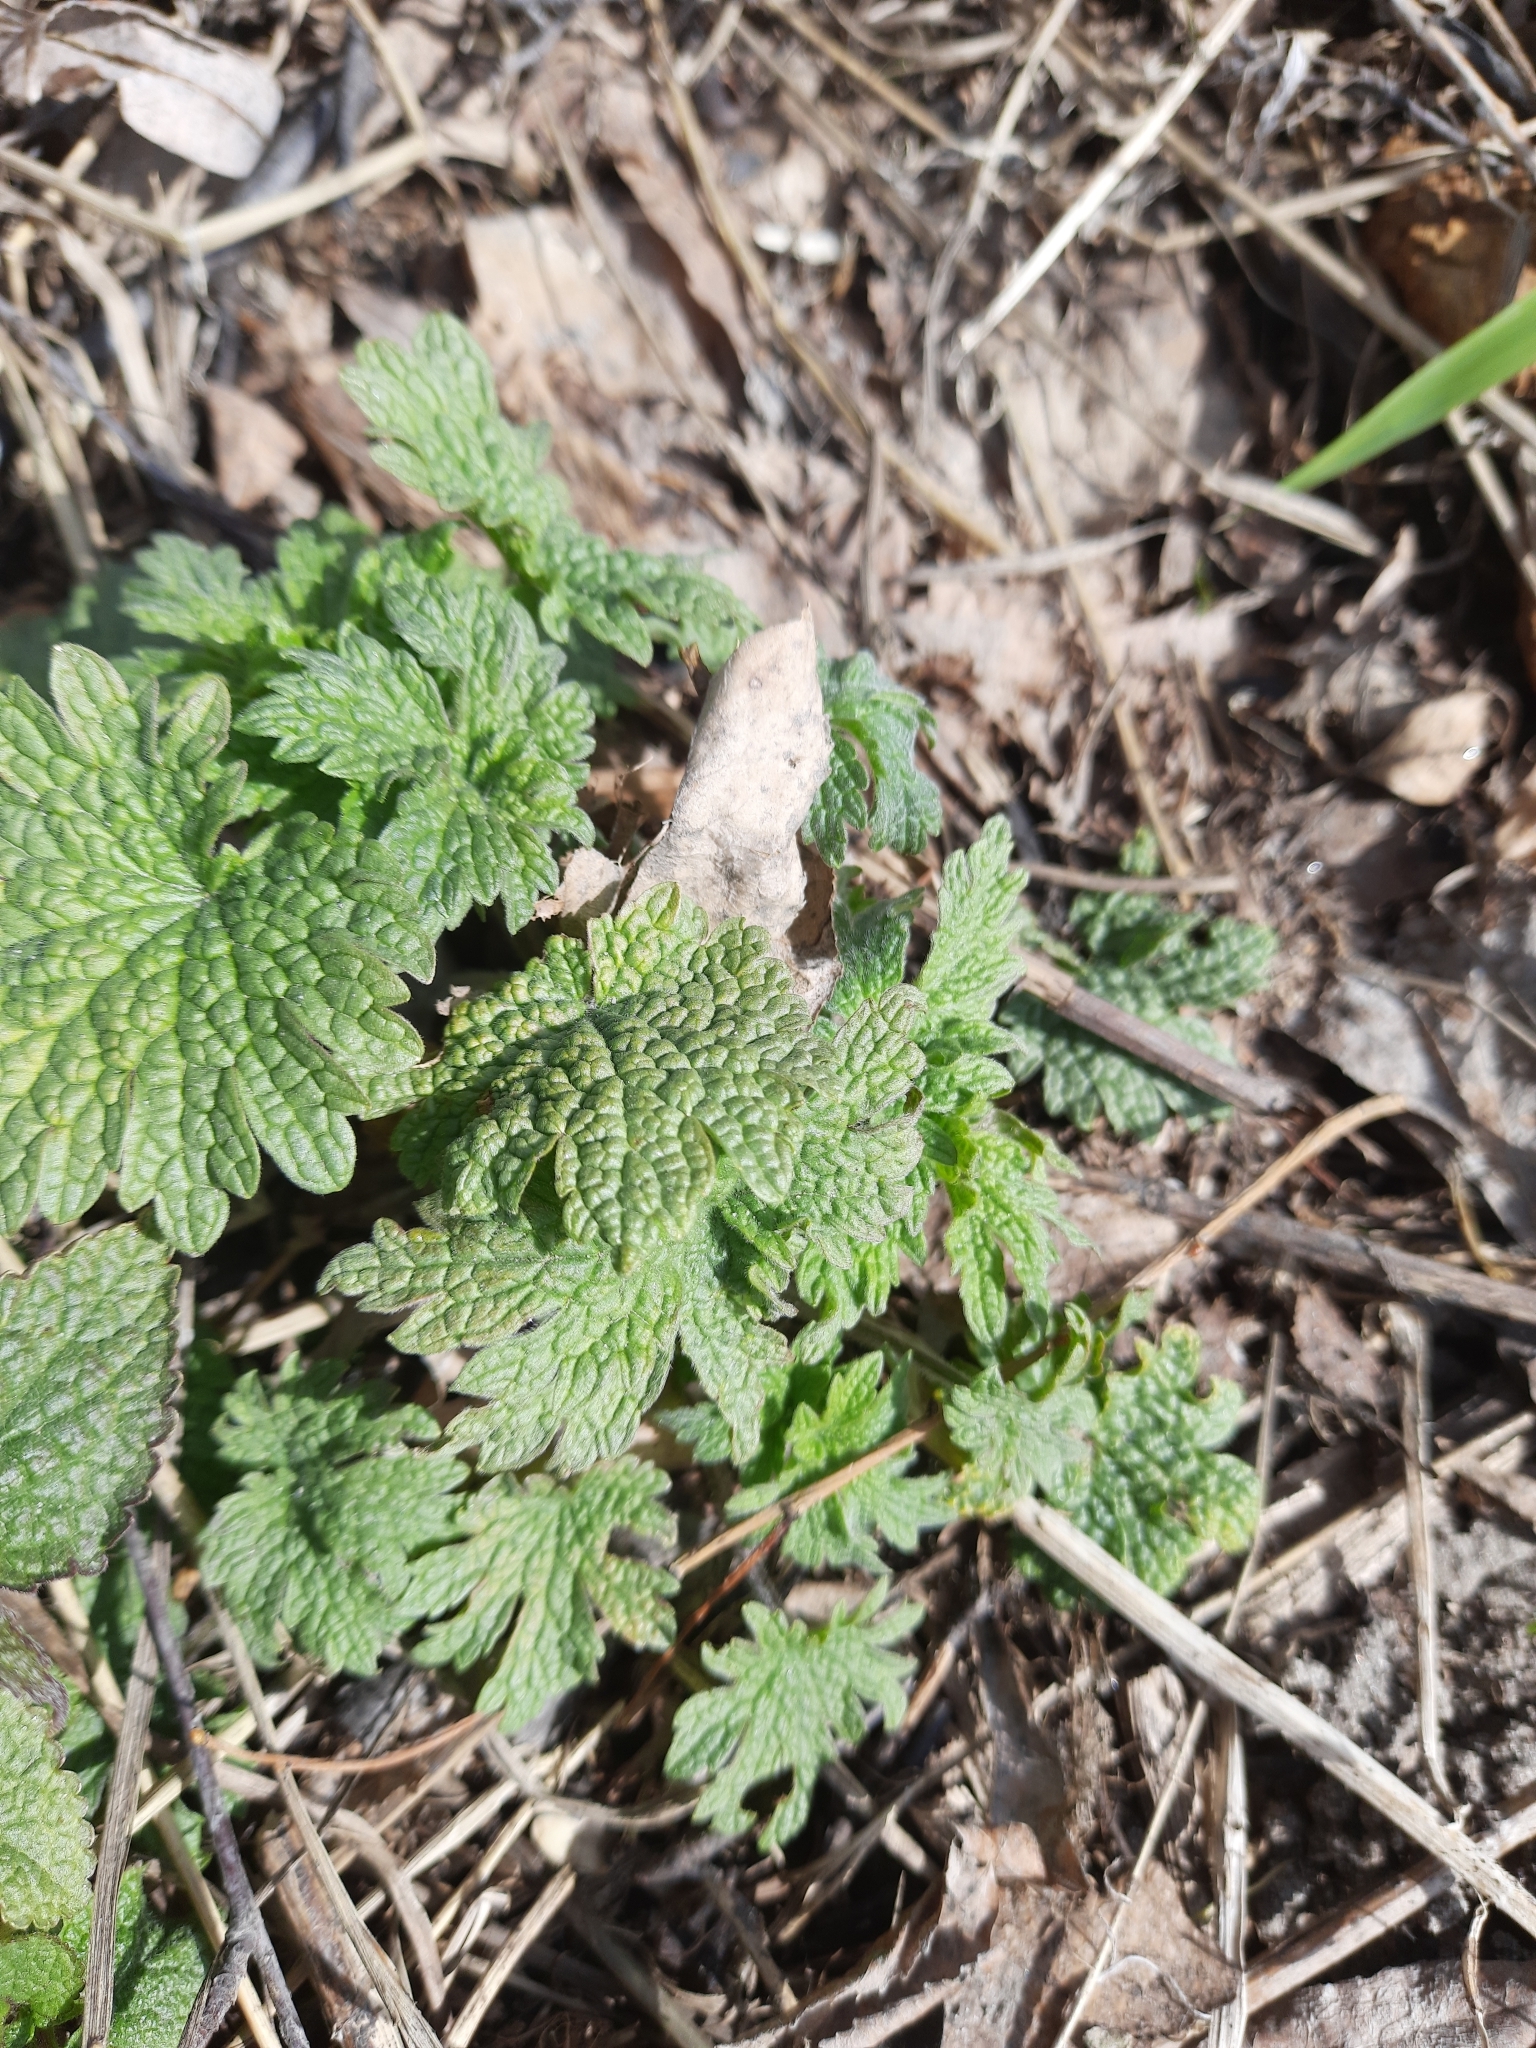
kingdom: Plantae
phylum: Tracheophyta
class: Magnoliopsida
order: Lamiales
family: Lamiaceae
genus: Leonurus
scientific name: Leonurus quinquelobatus
